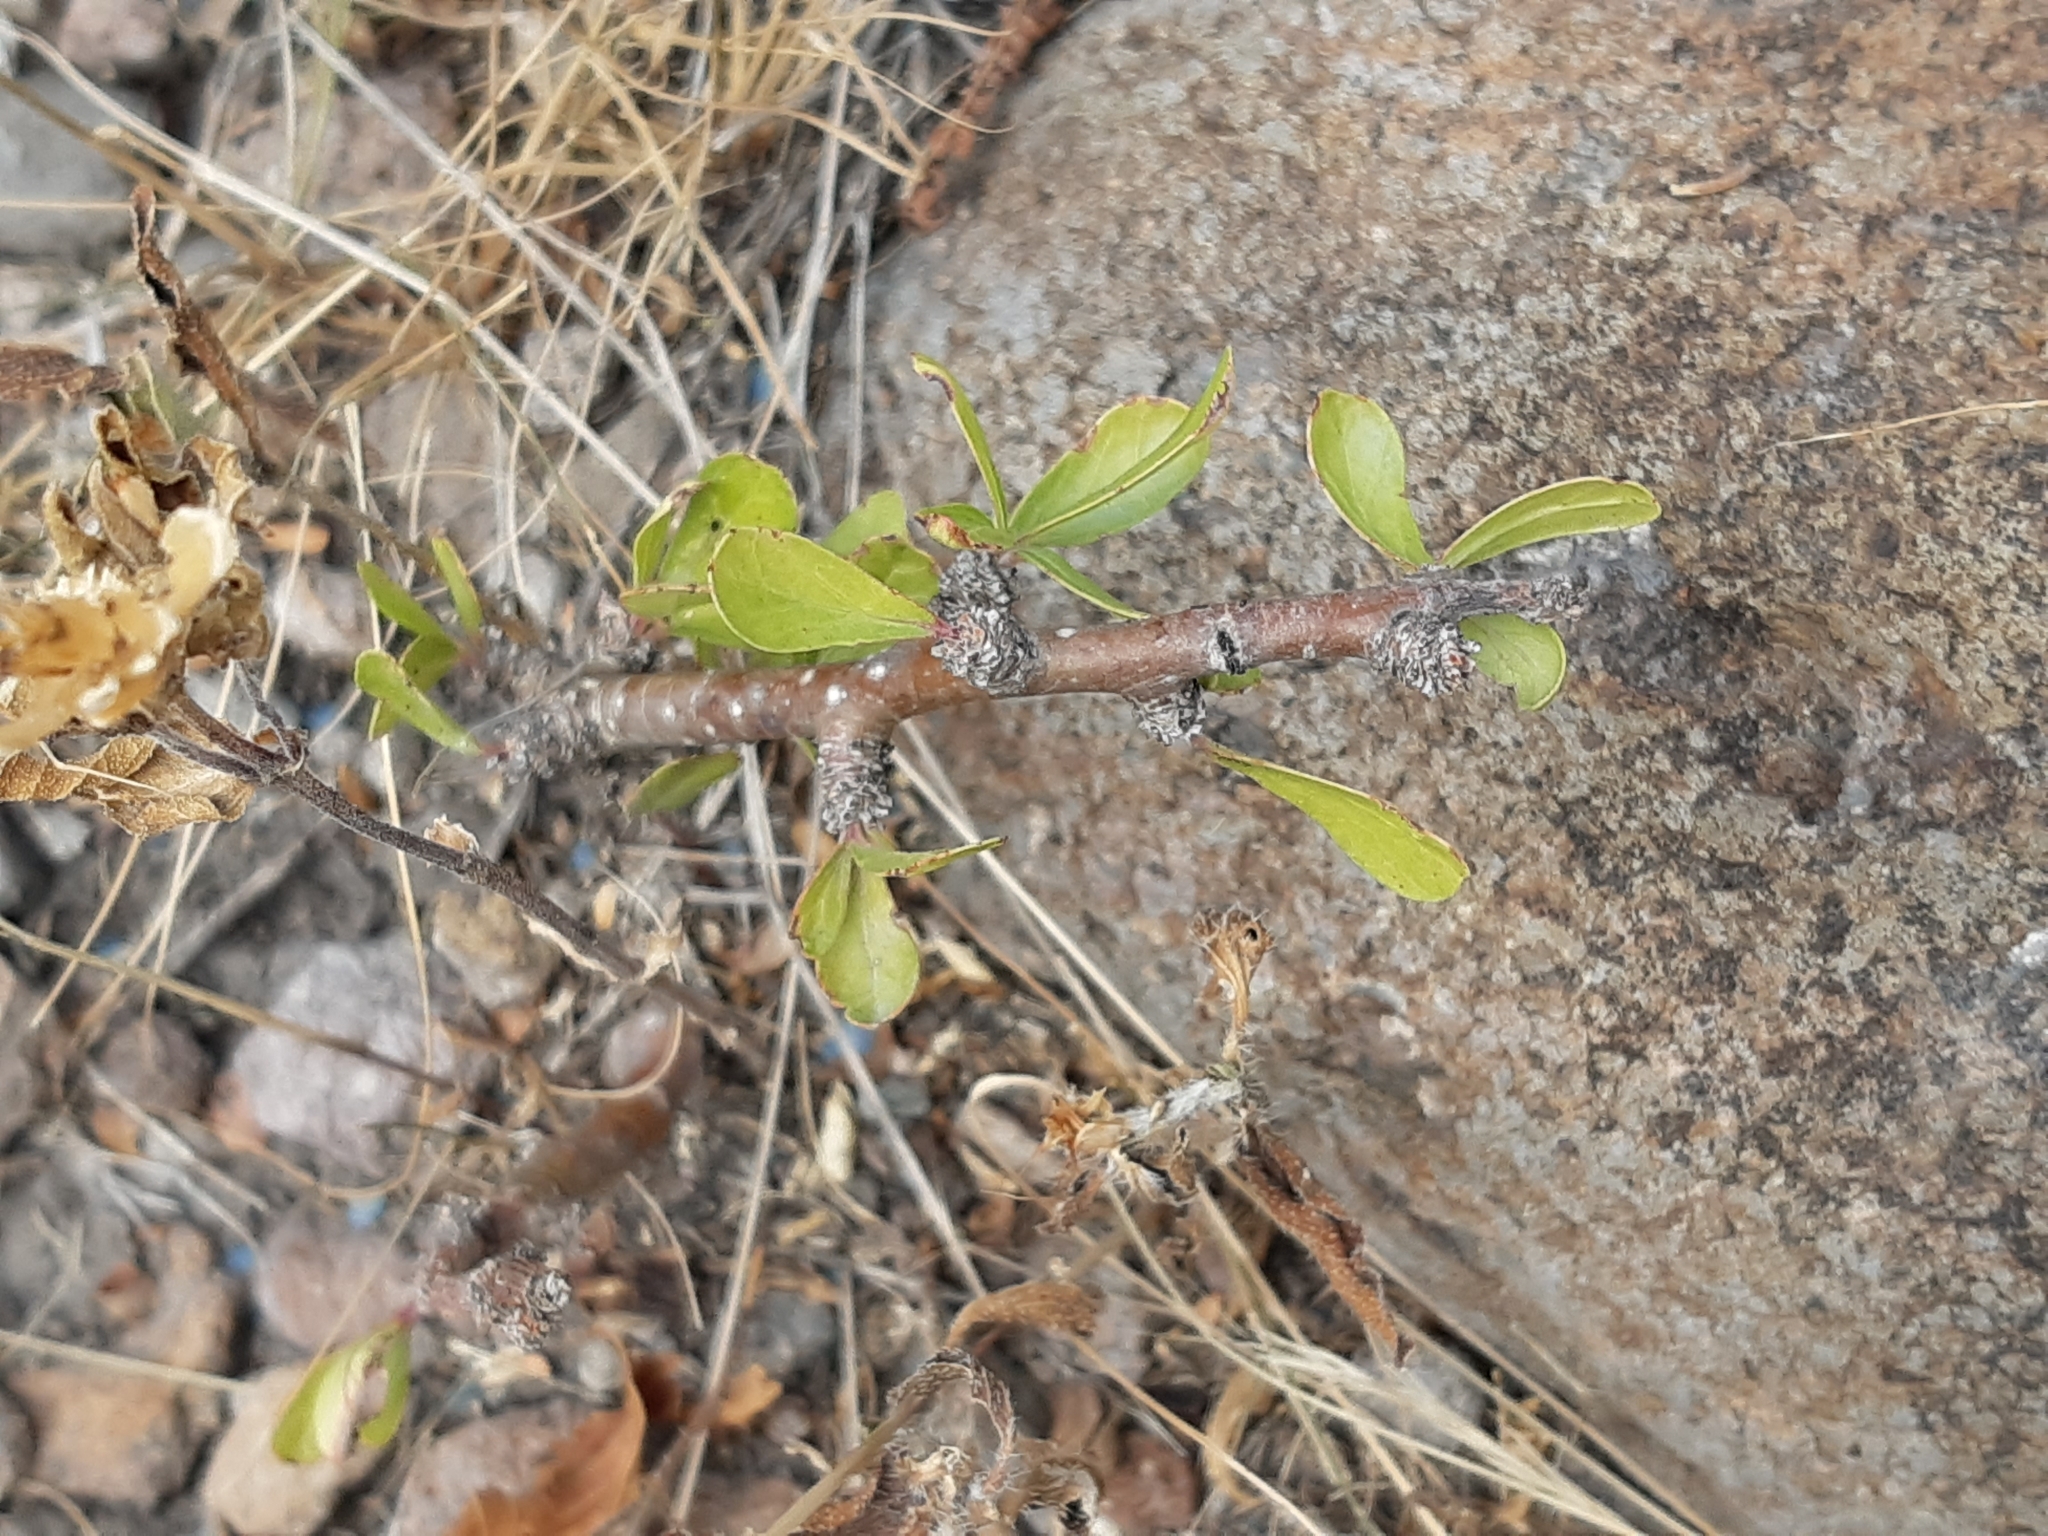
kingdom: Plantae
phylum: Tracheophyta
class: Magnoliopsida
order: Malpighiales
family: Euphorbiaceae
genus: Jatropha
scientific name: Jatropha dioica
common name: Leatherstem
